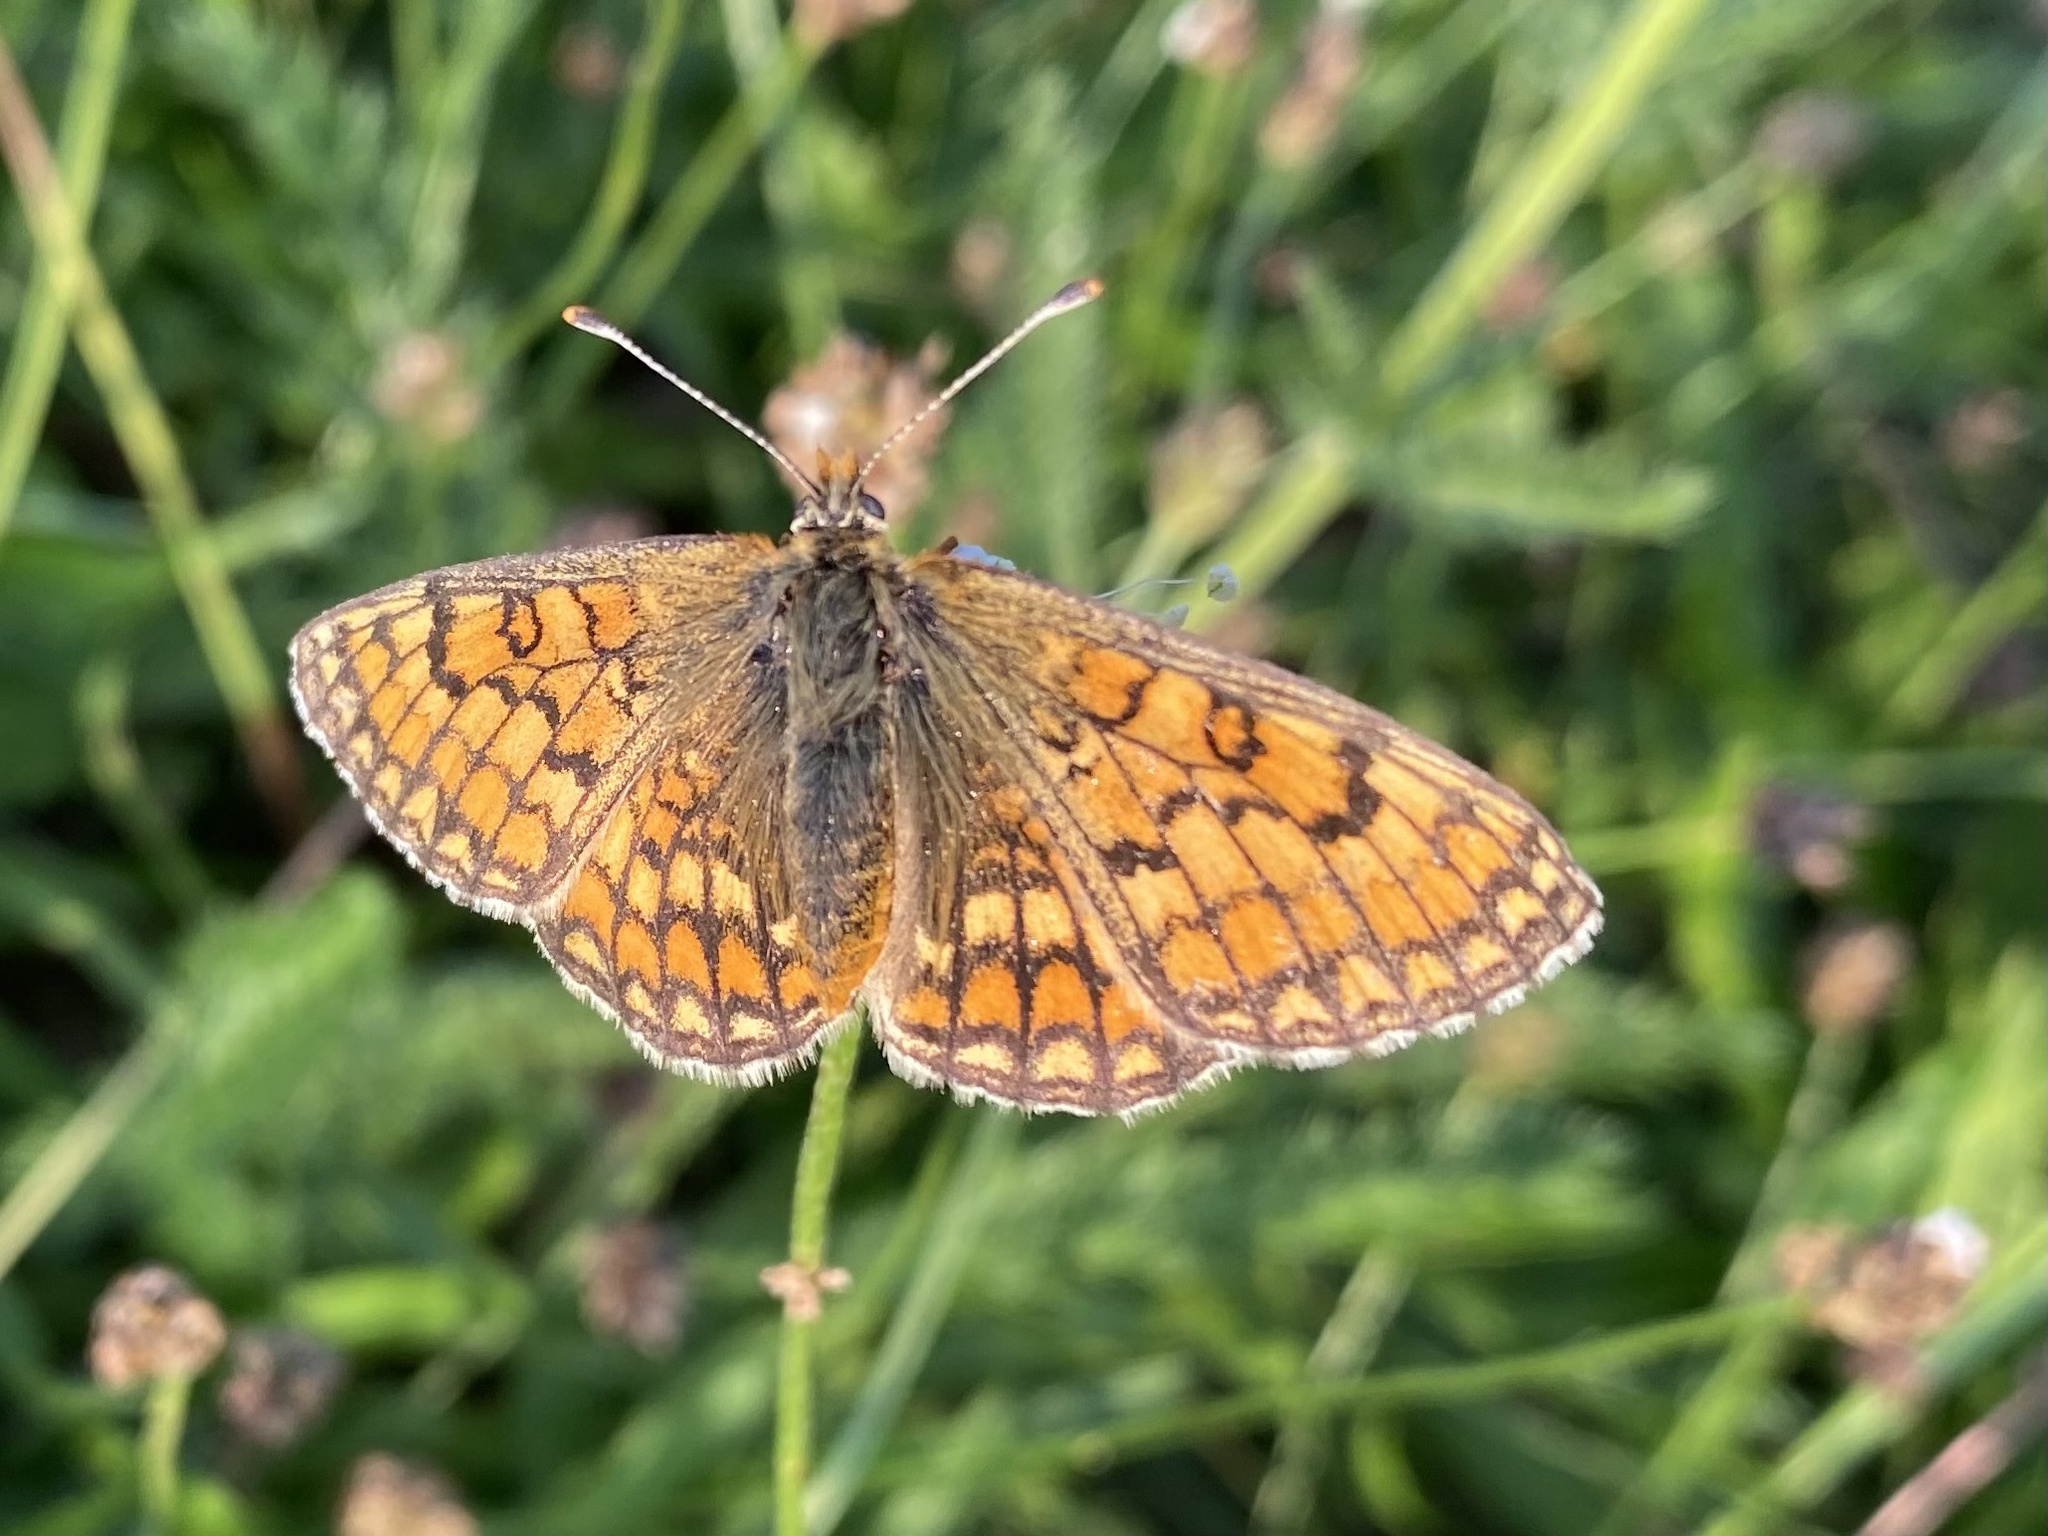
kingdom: Animalia
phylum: Arthropoda
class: Insecta
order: Lepidoptera
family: Nymphalidae
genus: Mellicta
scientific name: Mellicta parthenoides
